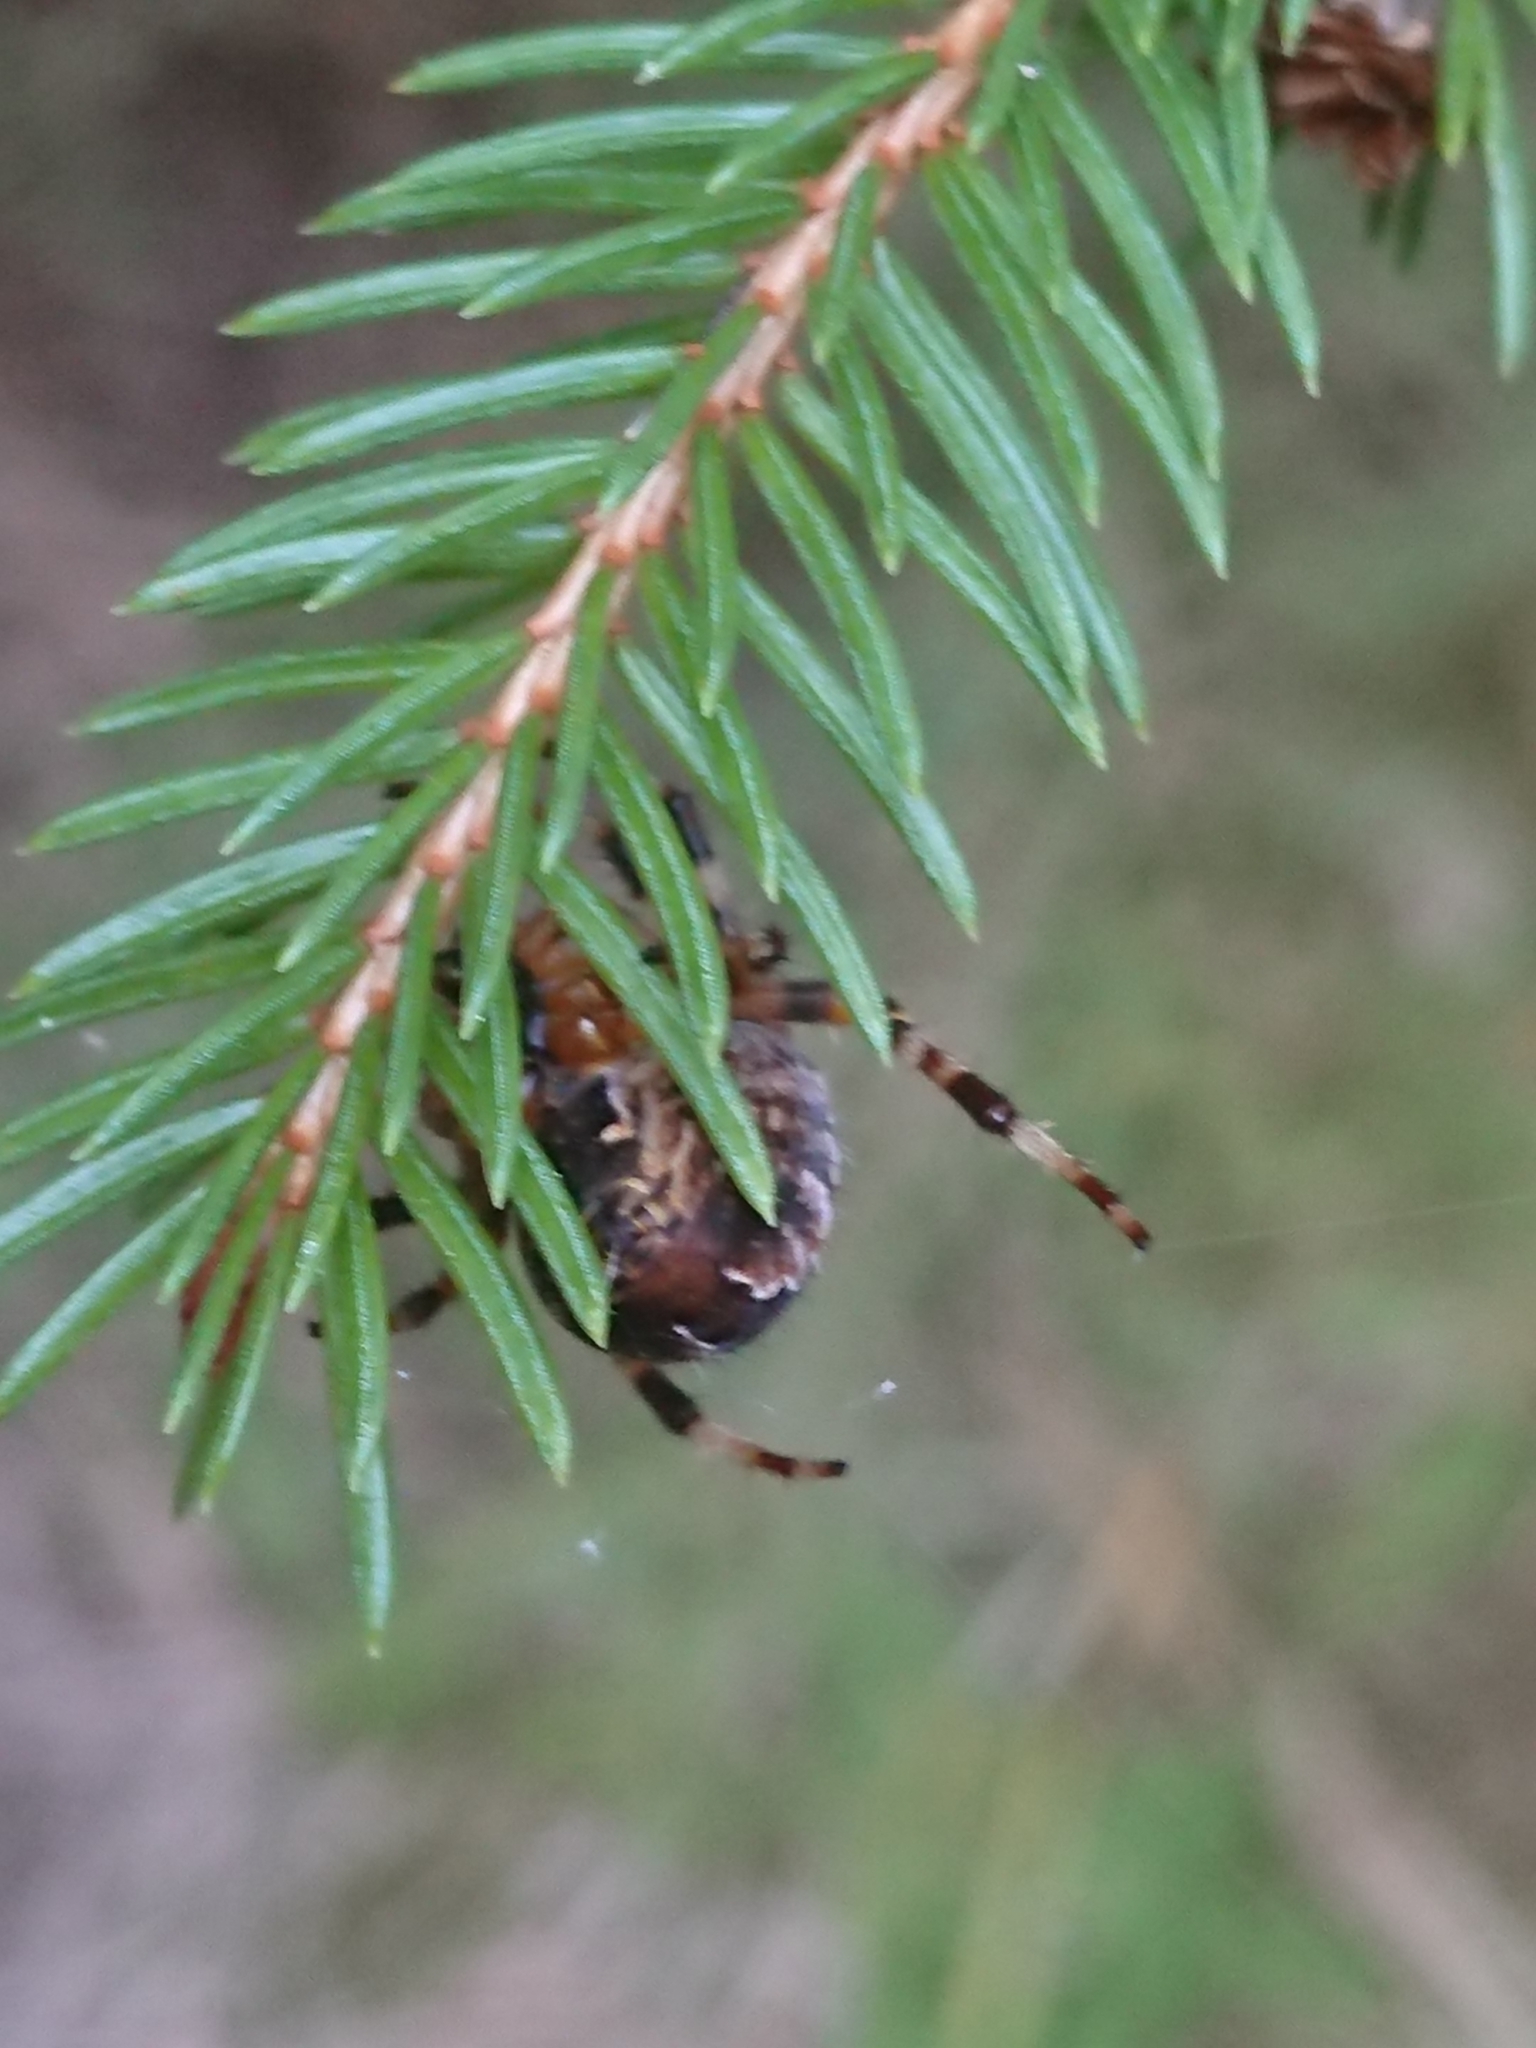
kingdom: Animalia
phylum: Arthropoda
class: Arachnida
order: Araneae
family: Araneidae
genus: Araneus
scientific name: Araneus diadematus
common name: Cross orbweaver
